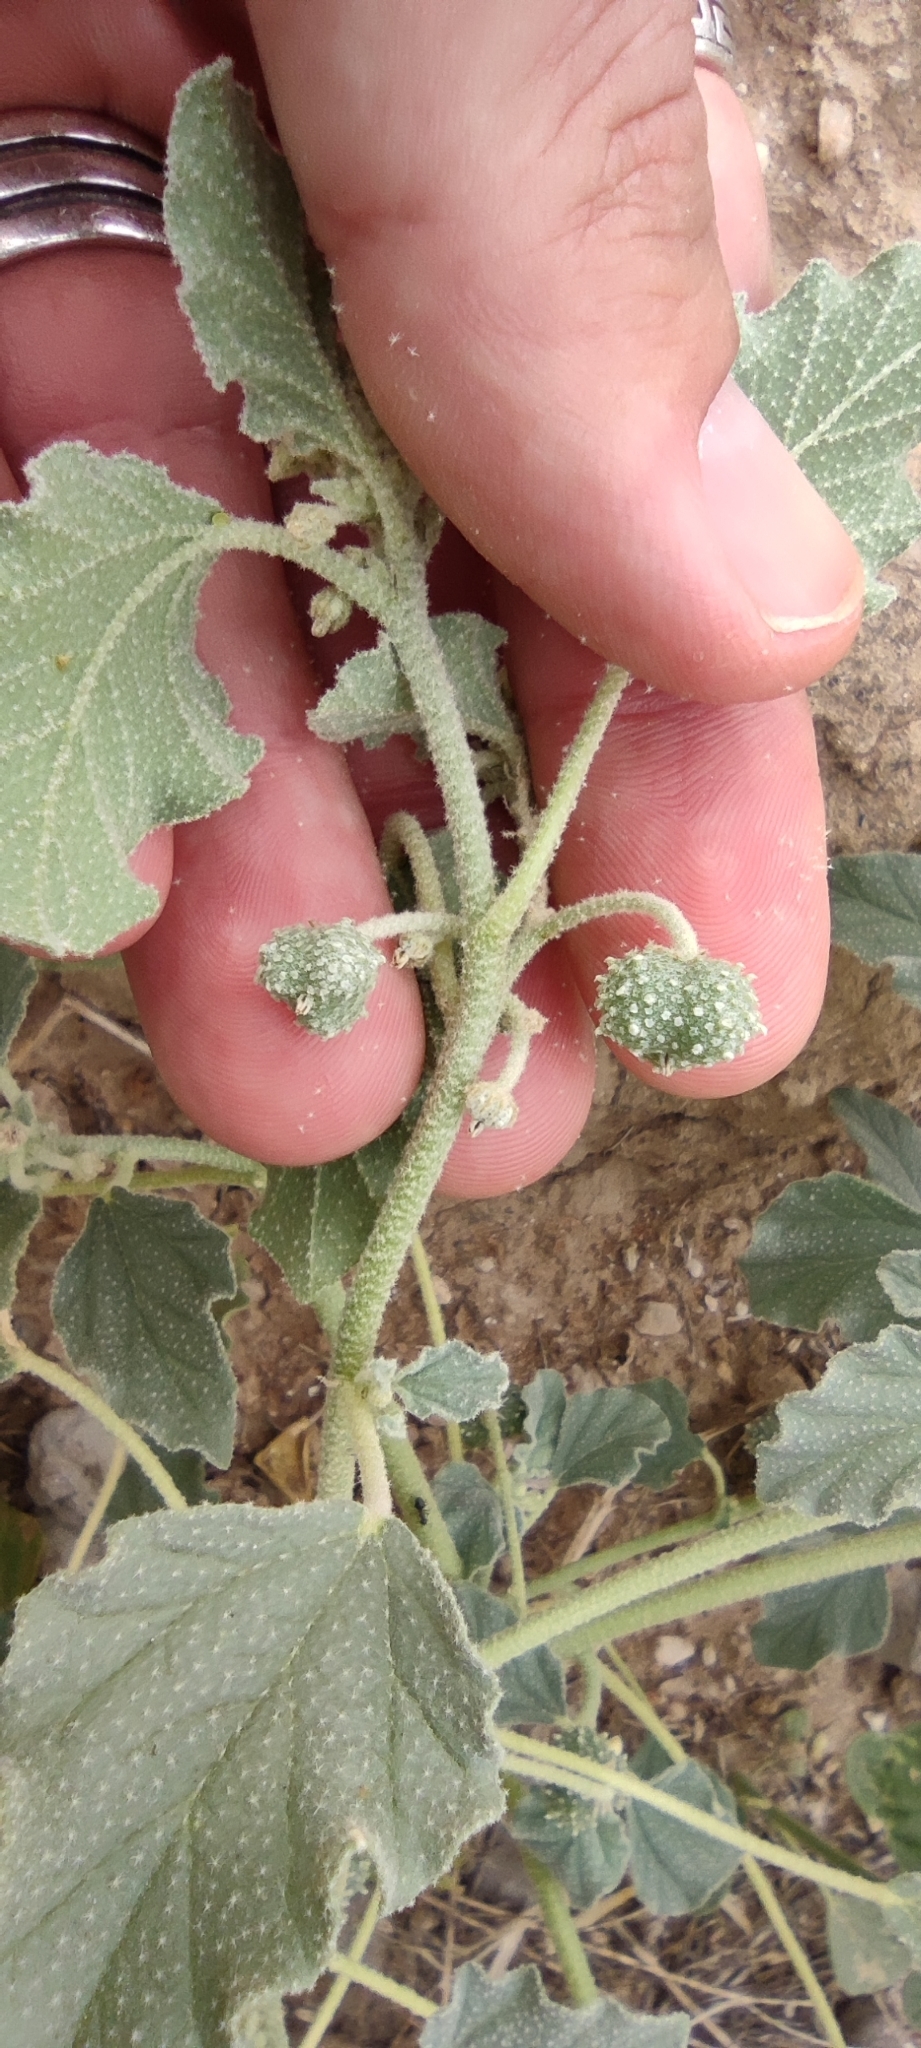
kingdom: Plantae
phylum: Tracheophyta
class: Magnoliopsida
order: Malpighiales
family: Euphorbiaceae
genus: Chrozophora
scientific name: Chrozophora tinctoria
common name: Dyer's litmus
